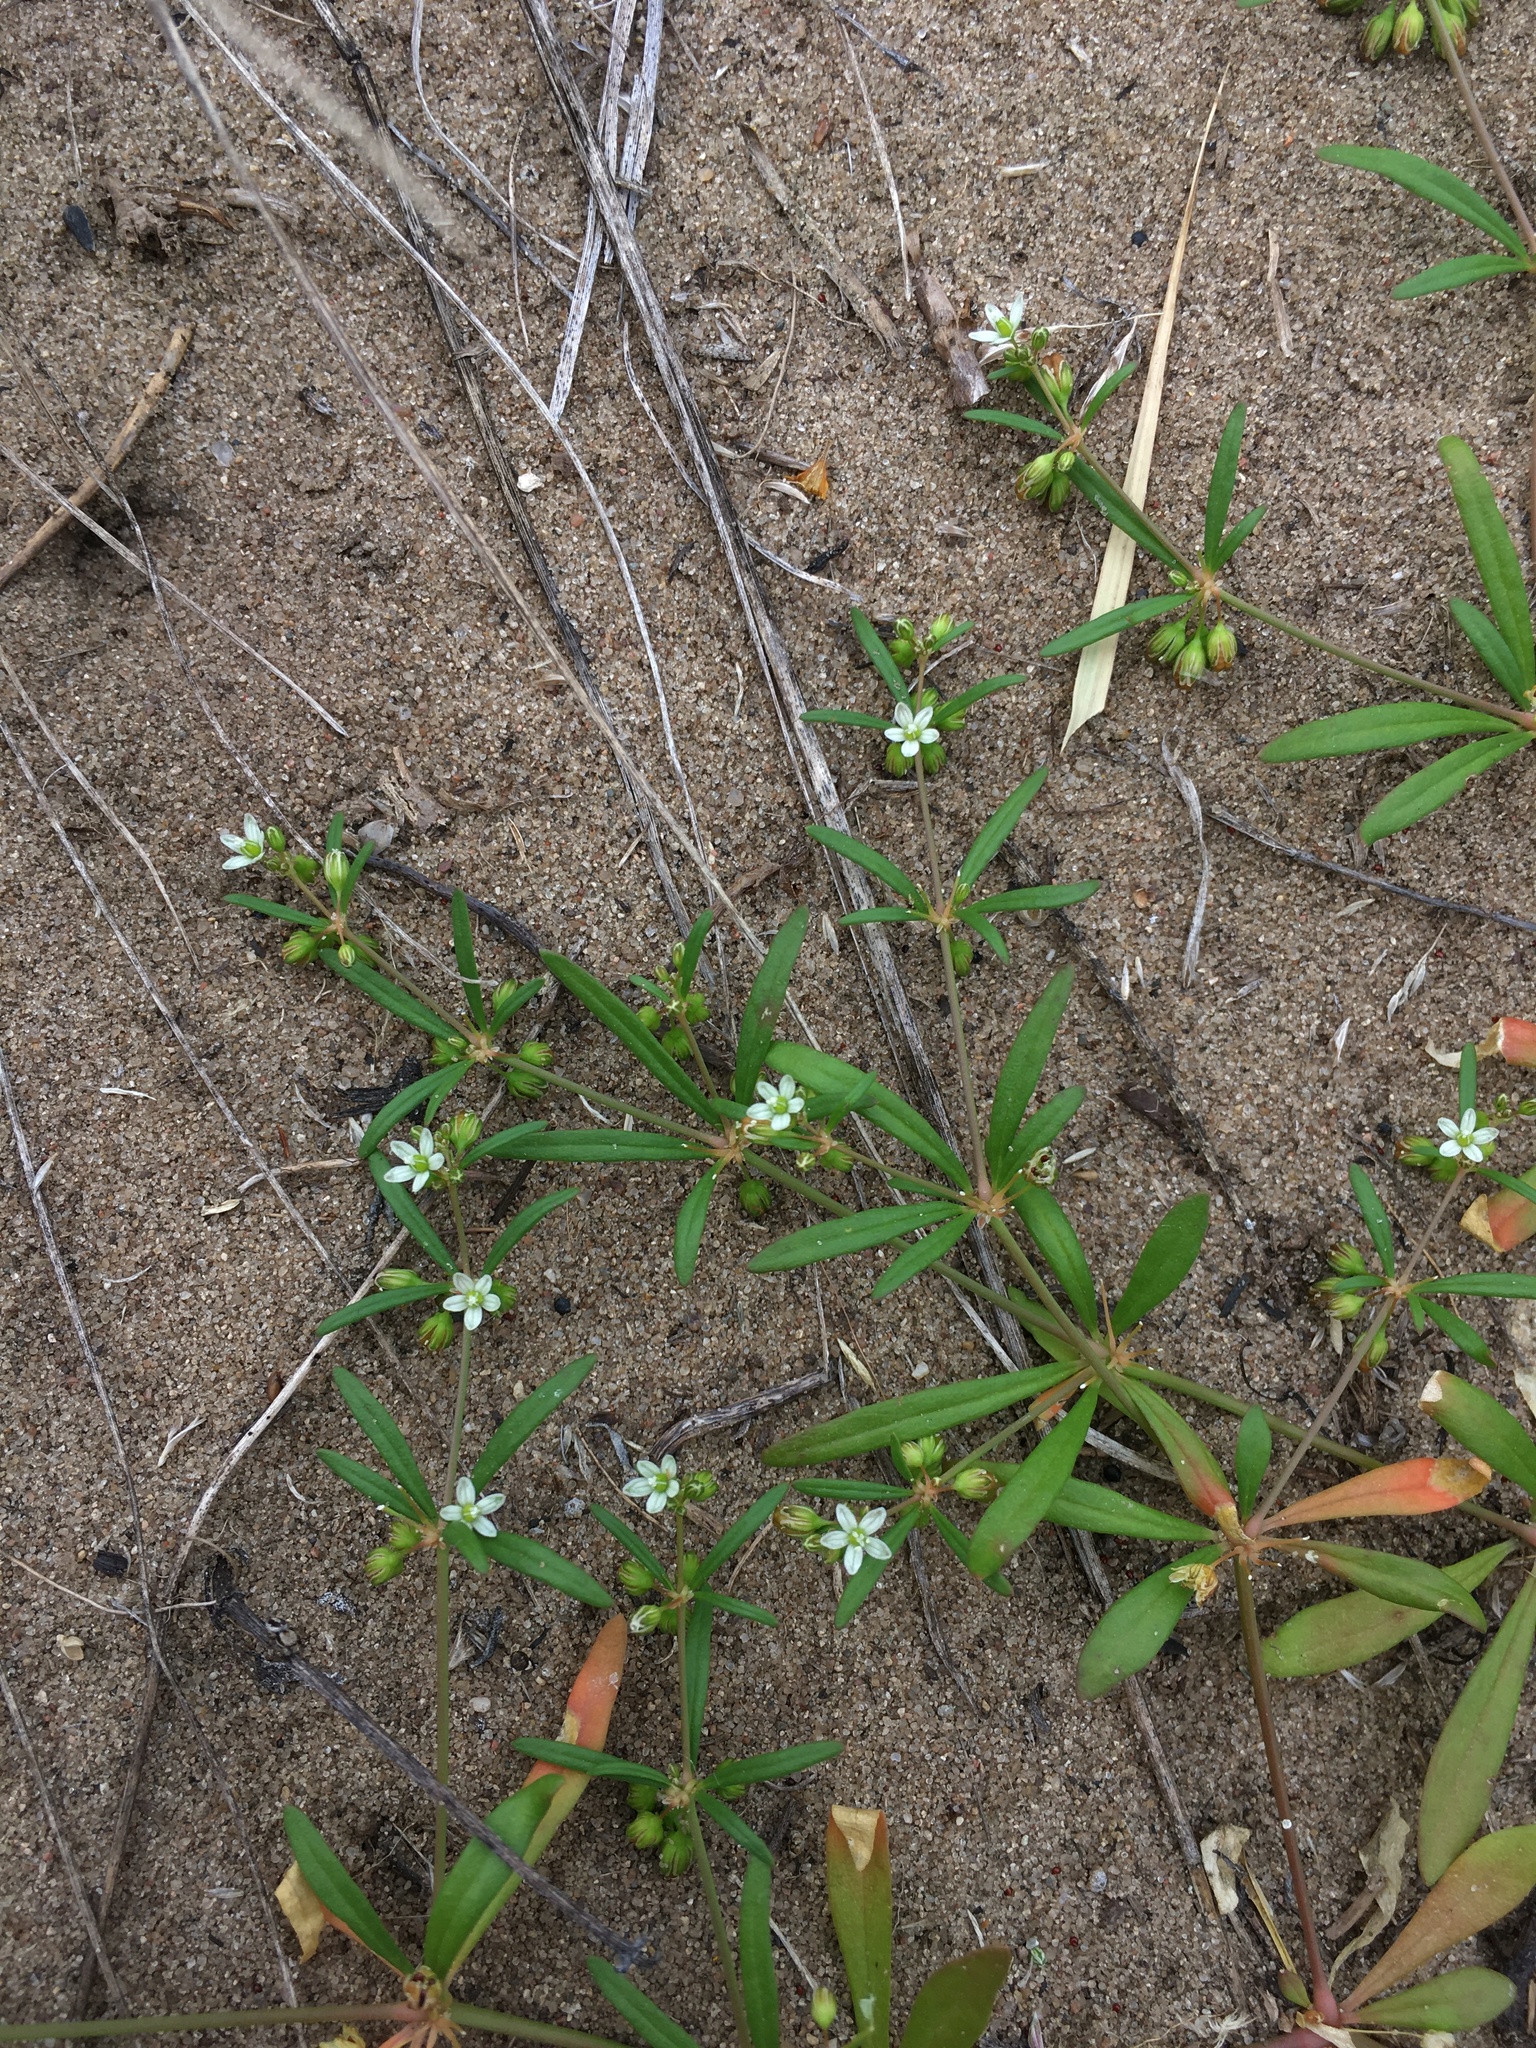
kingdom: Plantae
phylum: Tracheophyta
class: Magnoliopsida
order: Caryophyllales
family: Molluginaceae
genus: Mollugo
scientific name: Mollugo verticillata
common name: Green carpetweed
